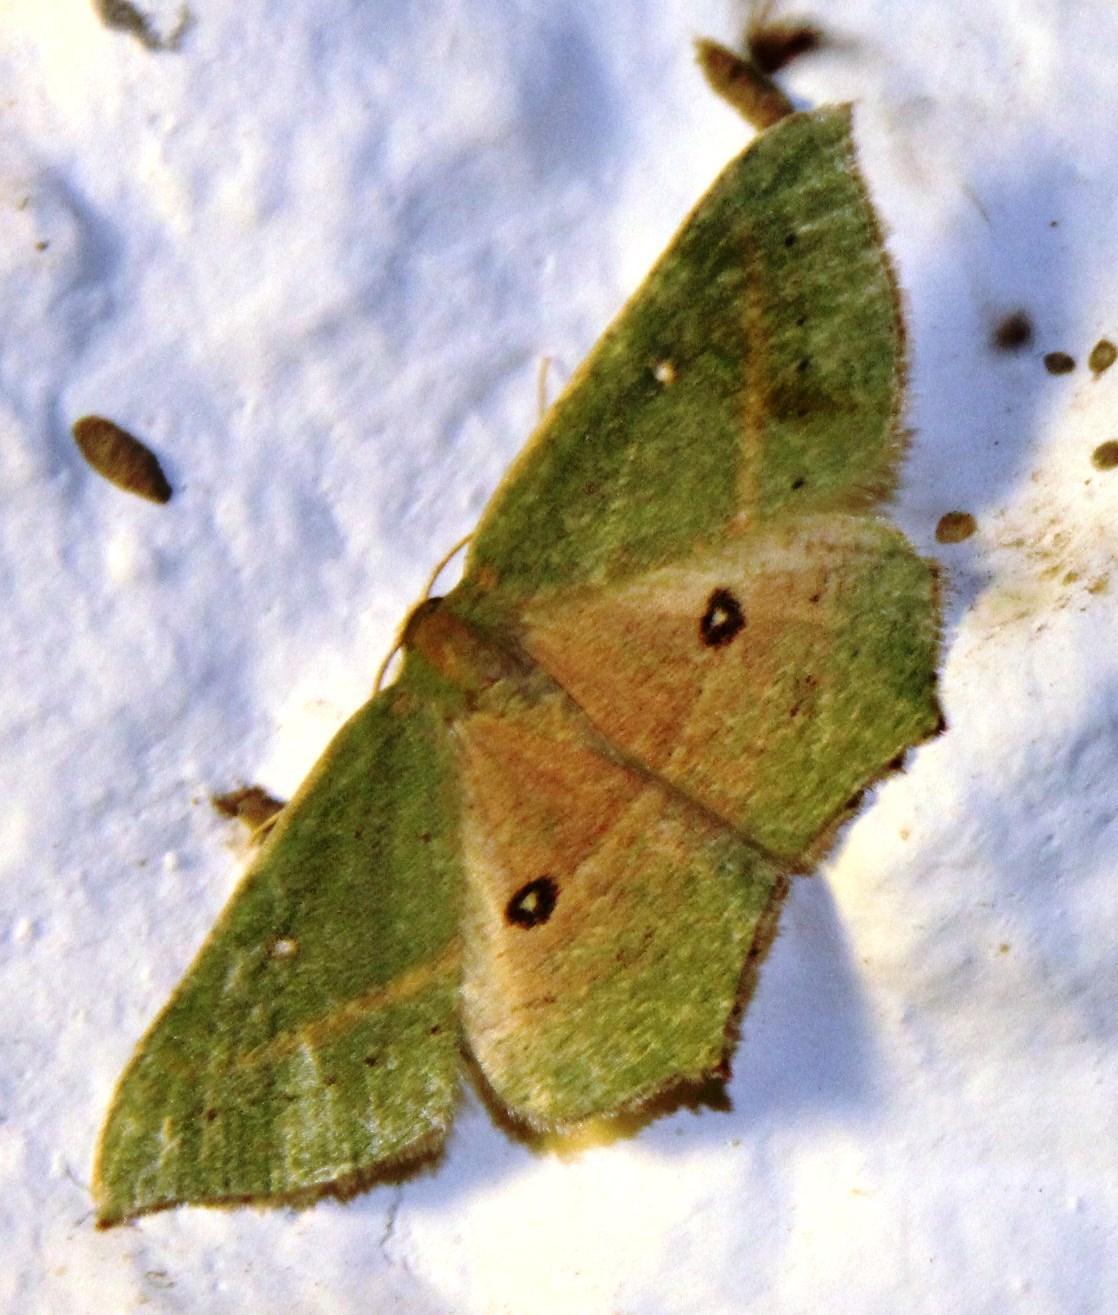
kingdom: Animalia
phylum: Arthropoda
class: Insecta
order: Lepidoptera
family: Geometridae
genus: Traminda
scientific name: Traminda ocellata
